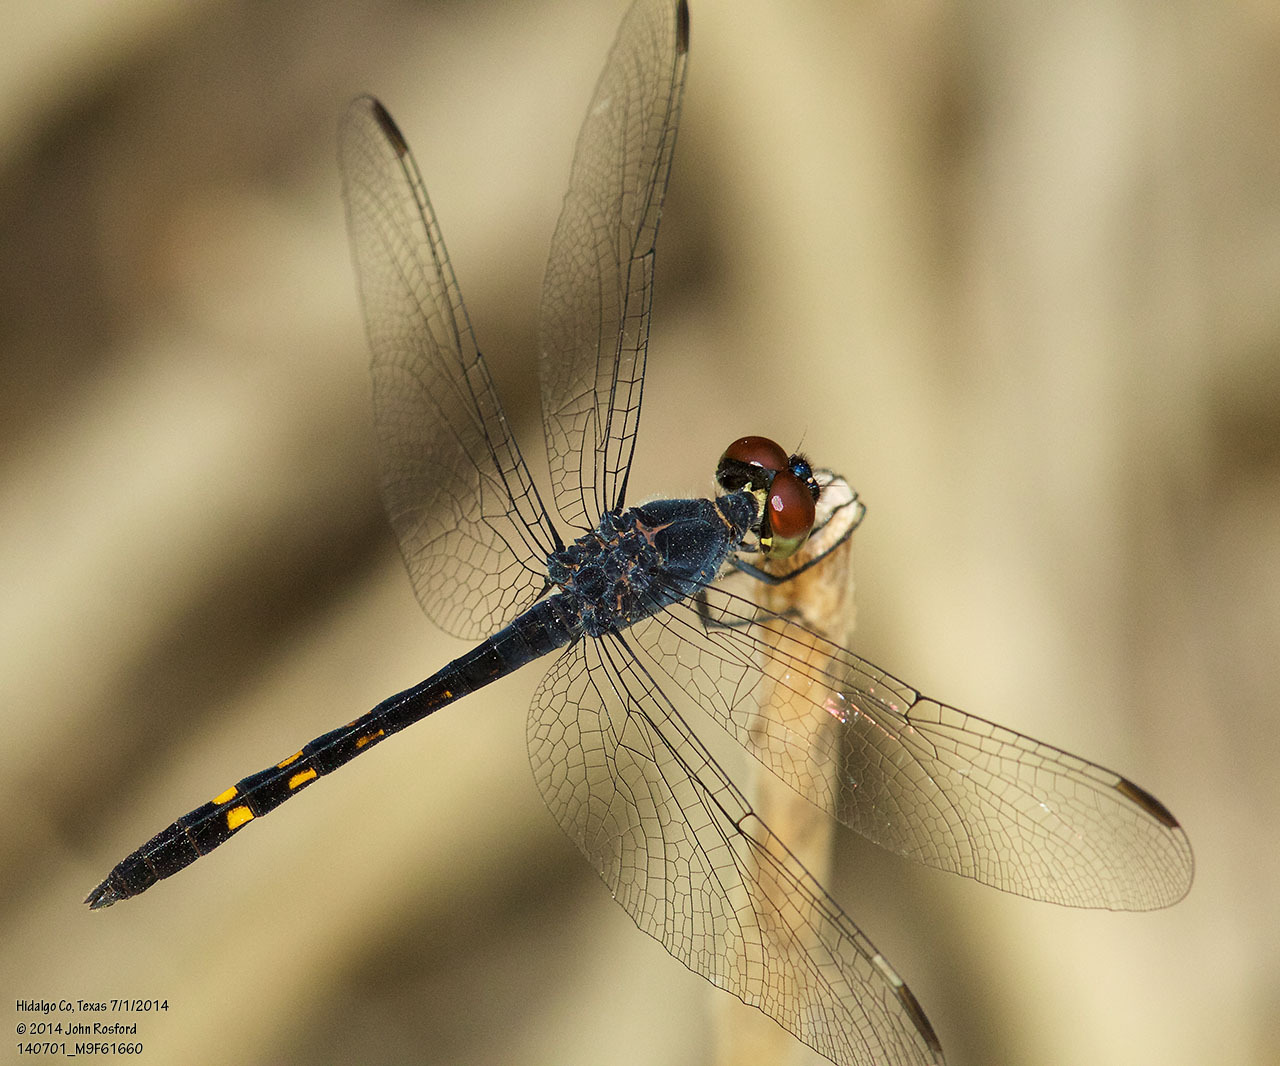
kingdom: Animalia
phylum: Arthropoda
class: Insecta
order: Odonata
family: Libellulidae
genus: Erythrodiplax
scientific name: Erythrodiplax berenice
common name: Seaside dragonlet
